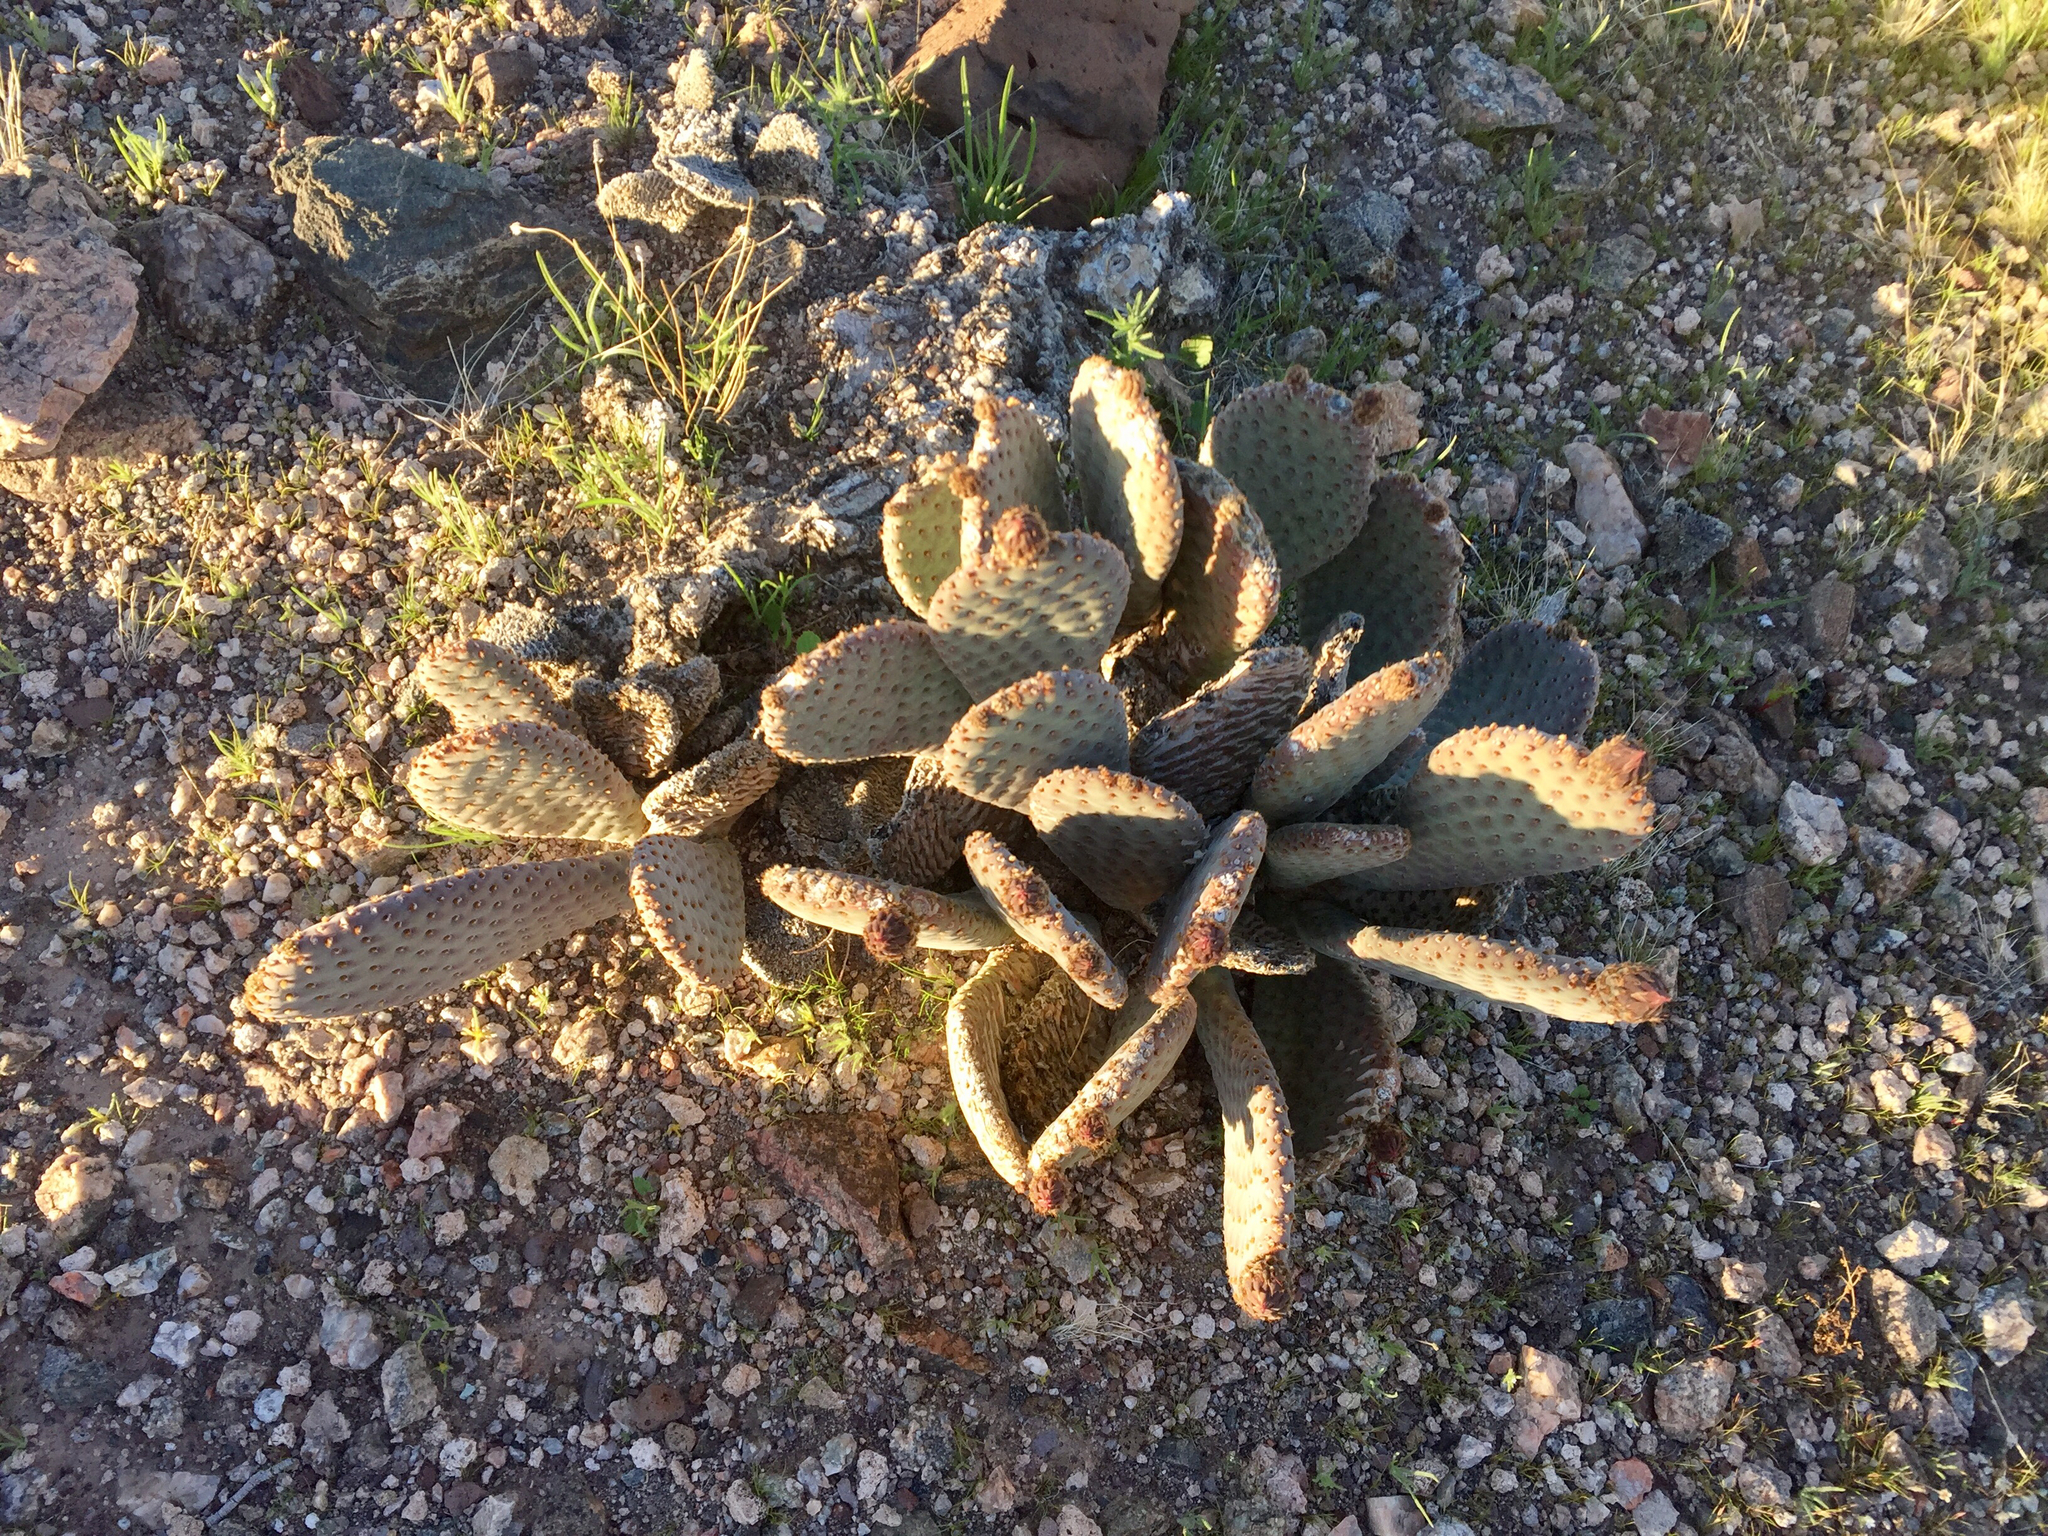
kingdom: Plantae
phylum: Tracheophyta
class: Magnoliopsida
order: Caryophyllales
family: Cactaceae
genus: Opuntia
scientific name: Opuntia basilaris
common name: Beavertail prickly-pear
